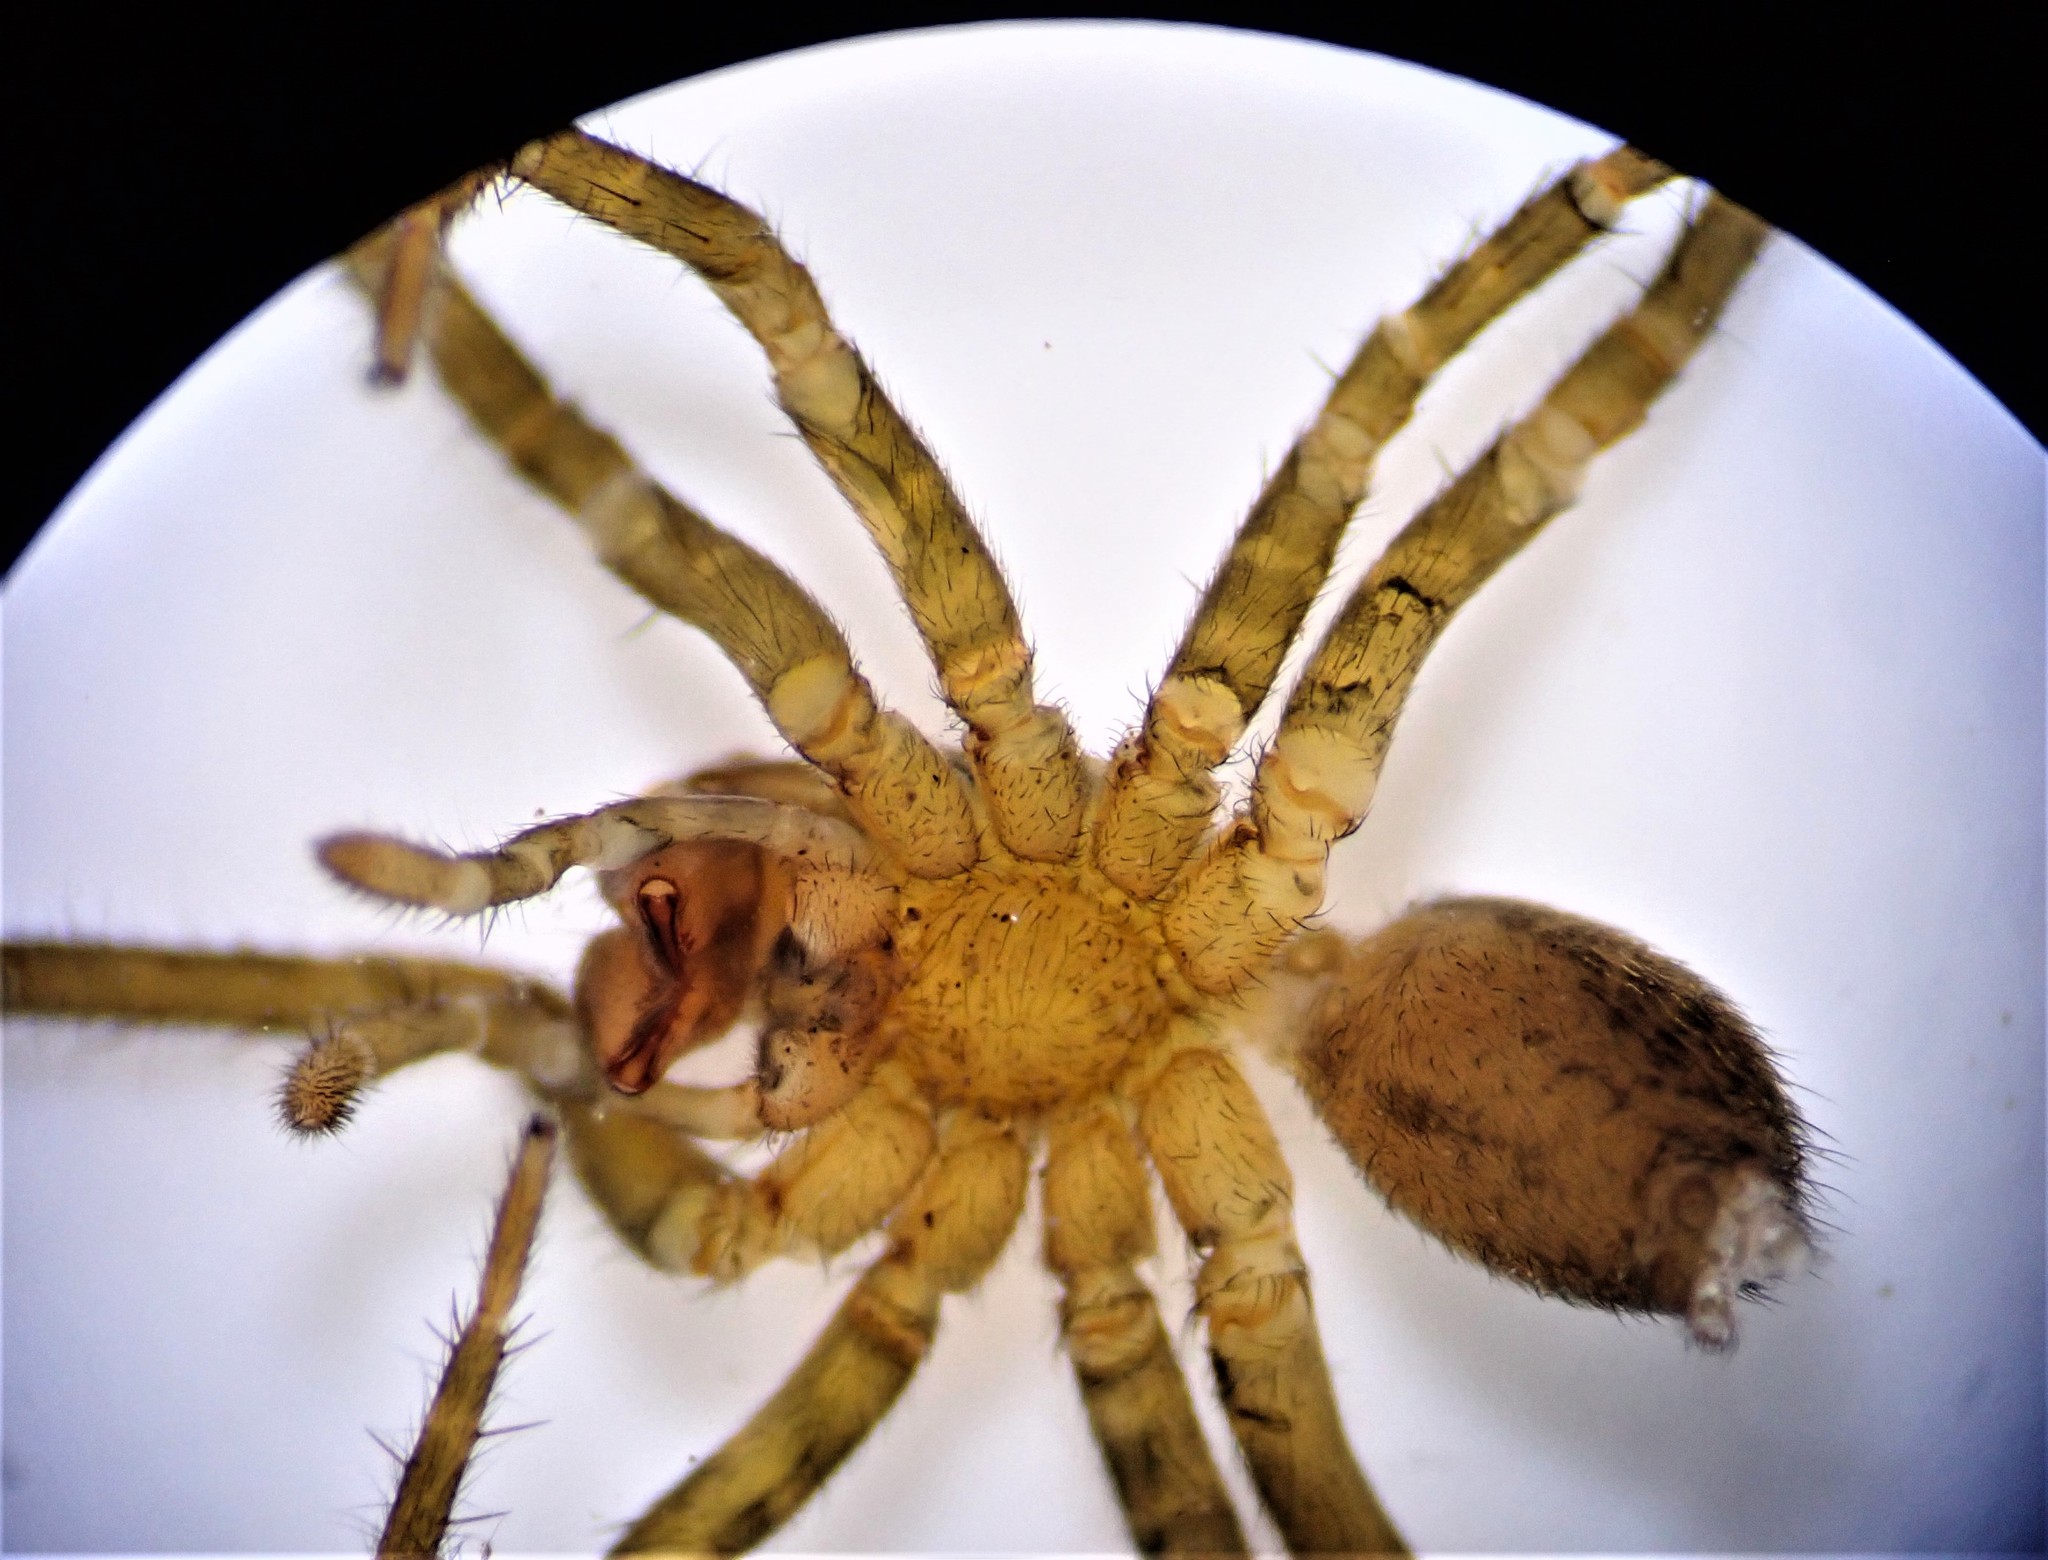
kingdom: Animalia
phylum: Arthropoda
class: Arachnida
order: Araneae
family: Lycosidae
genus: Allotrochosina
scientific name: Allotrochosina schauinslandi
